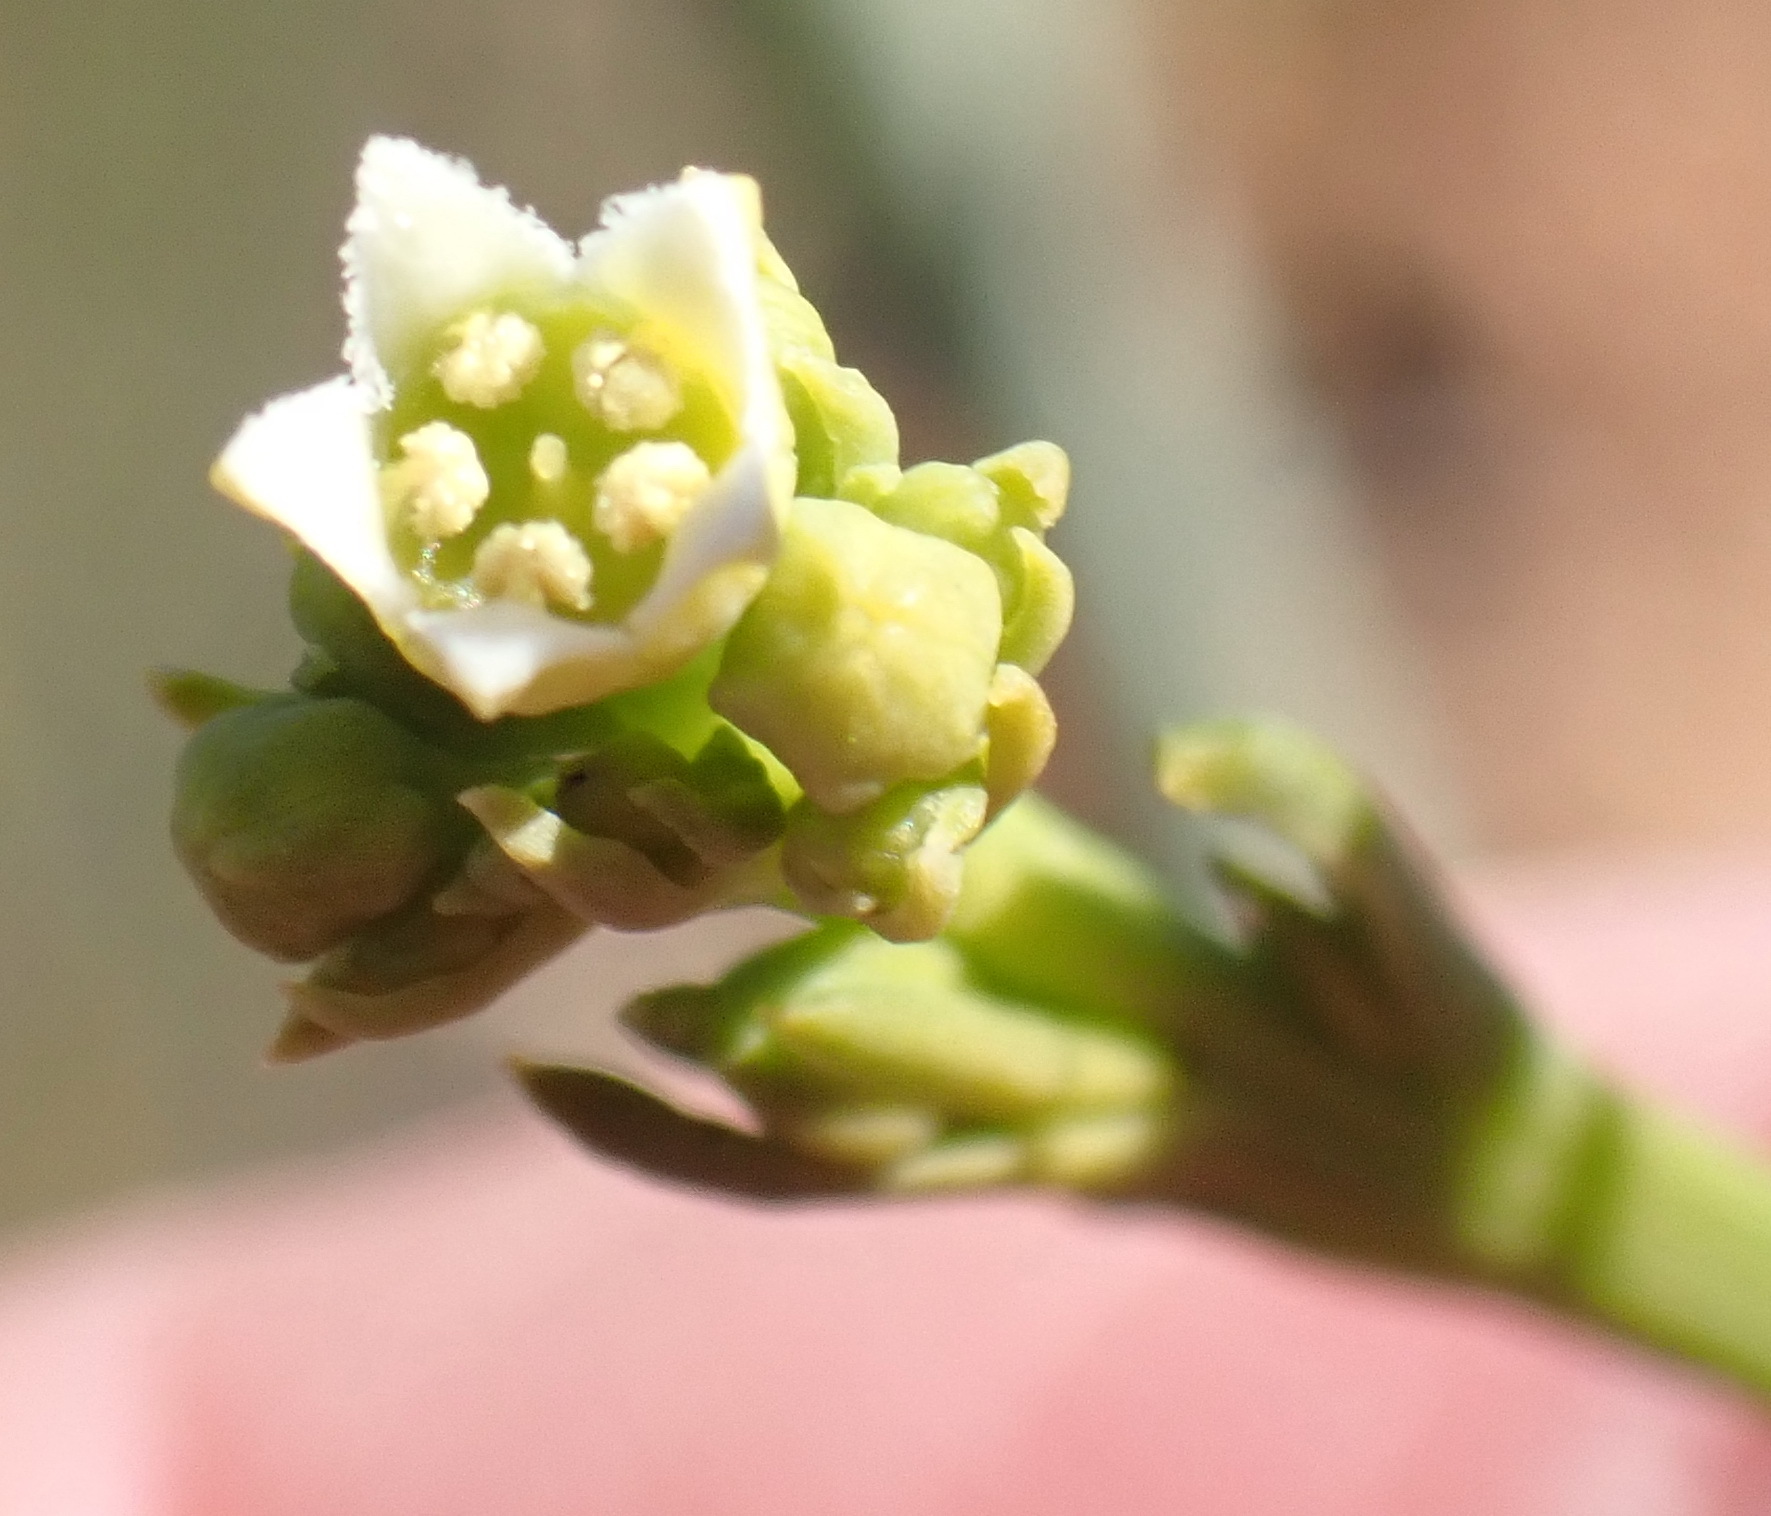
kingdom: Plantae
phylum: Tracheophyta
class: Magnoliopsida
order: Santalales
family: Thesiaceae
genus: Thesium
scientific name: Thesium strictum
